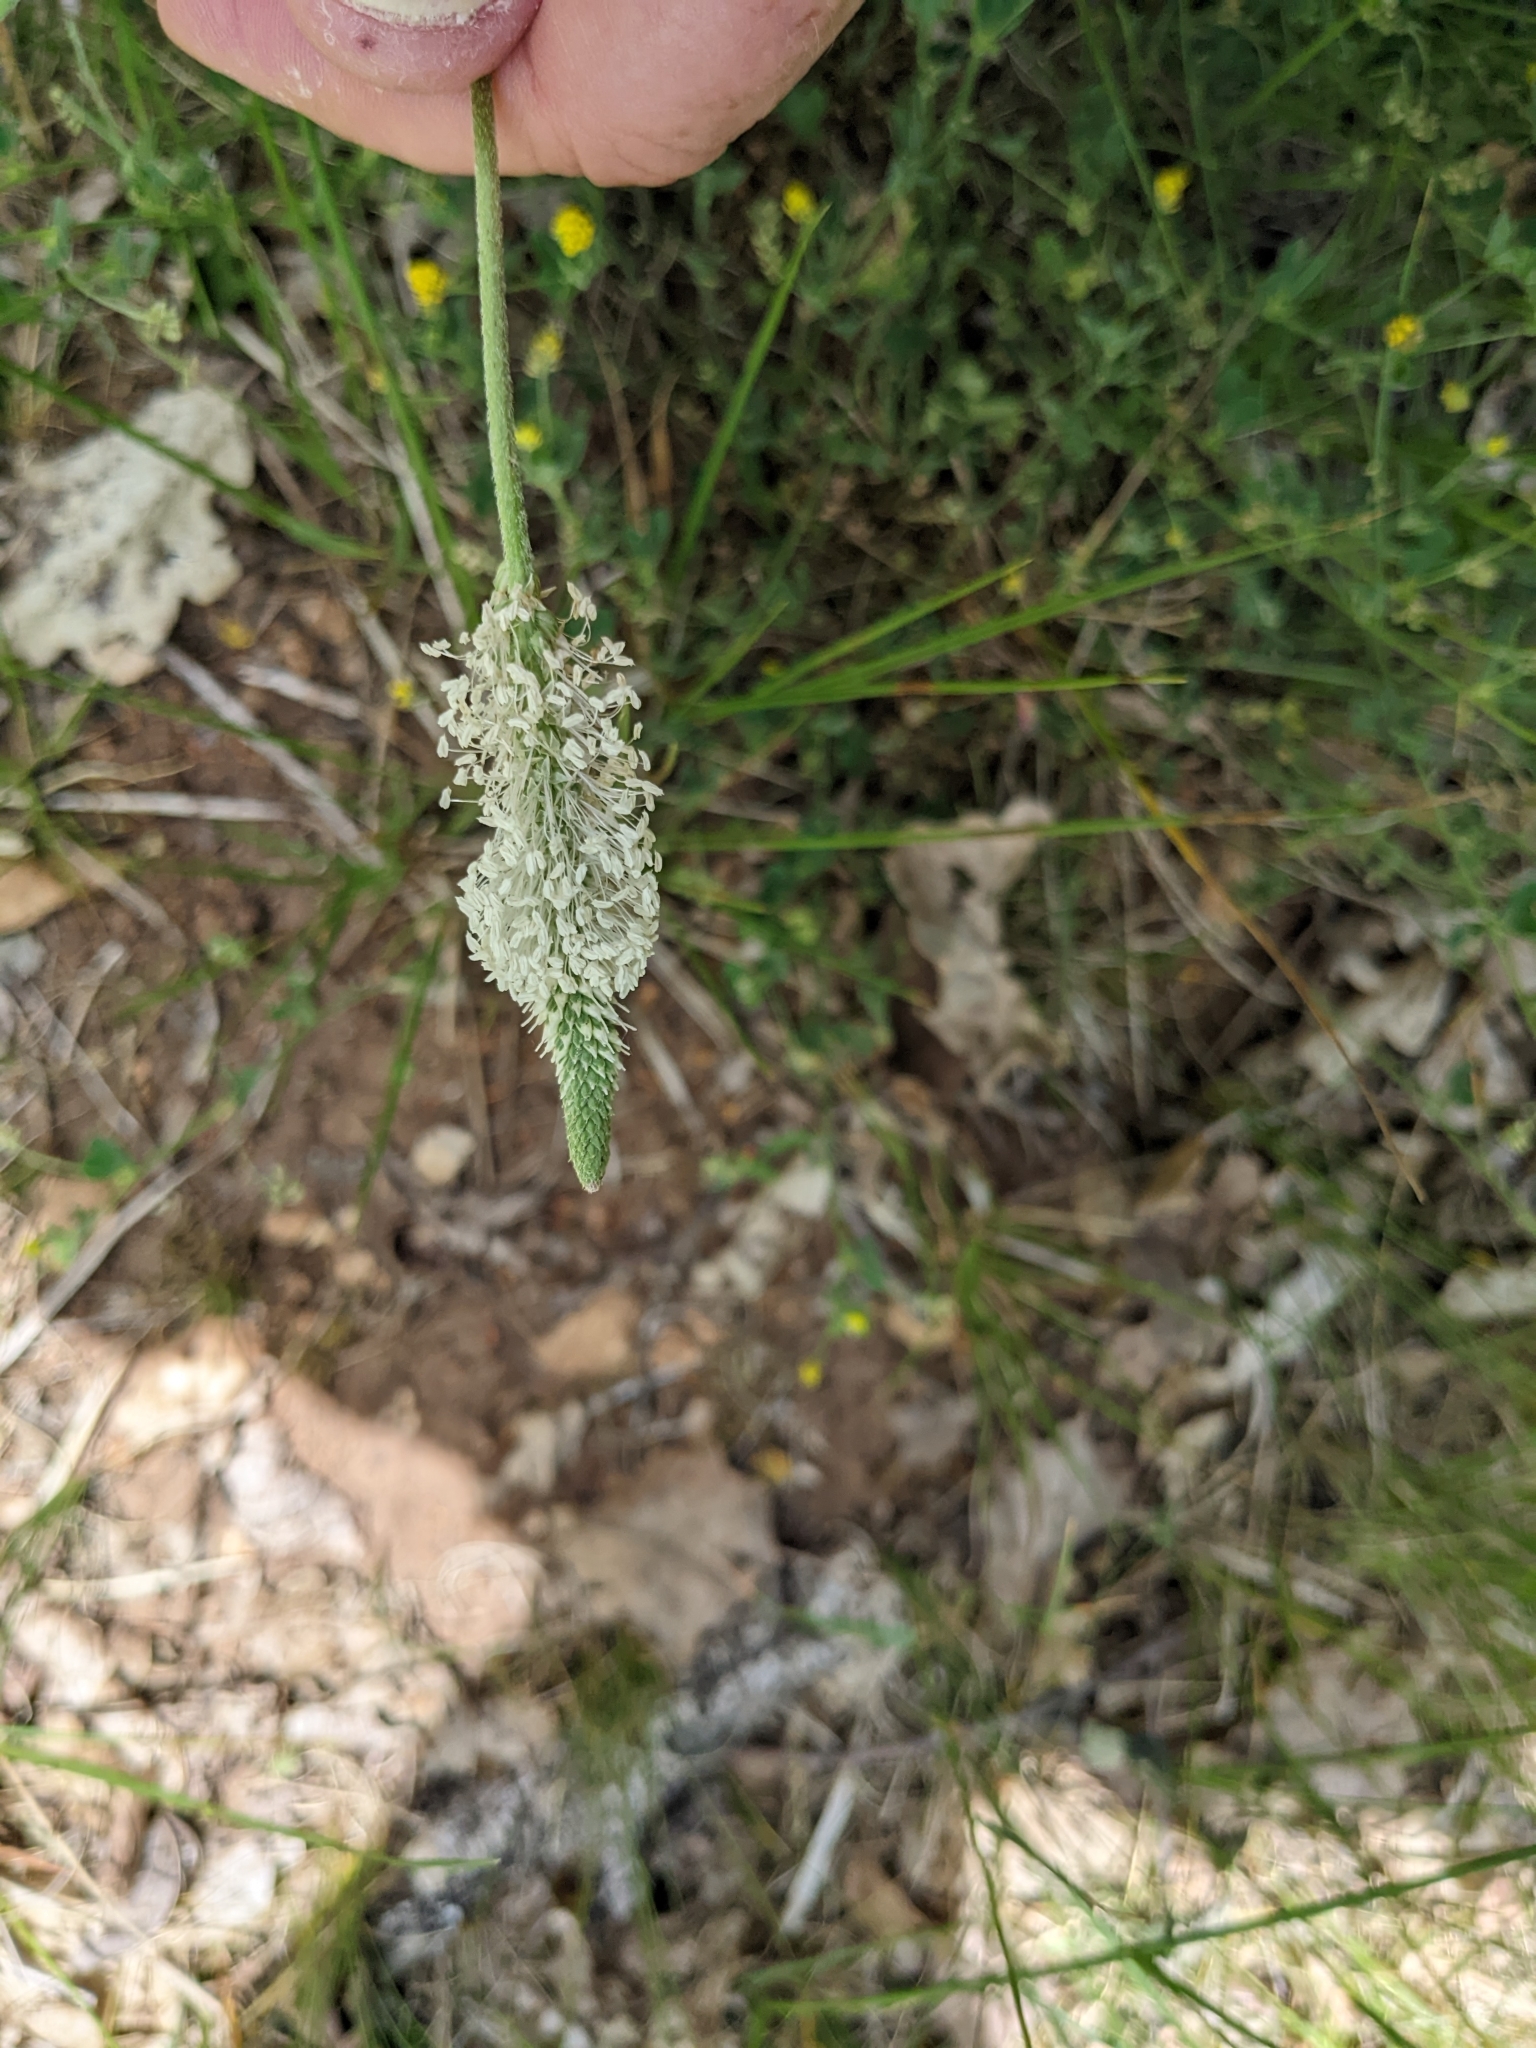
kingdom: Plantae
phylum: Tracheophyta
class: Magnoliopsida
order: Lamiales
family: Plantaginaceae
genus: Plantago
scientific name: Plantago media
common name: Hoary plantain
